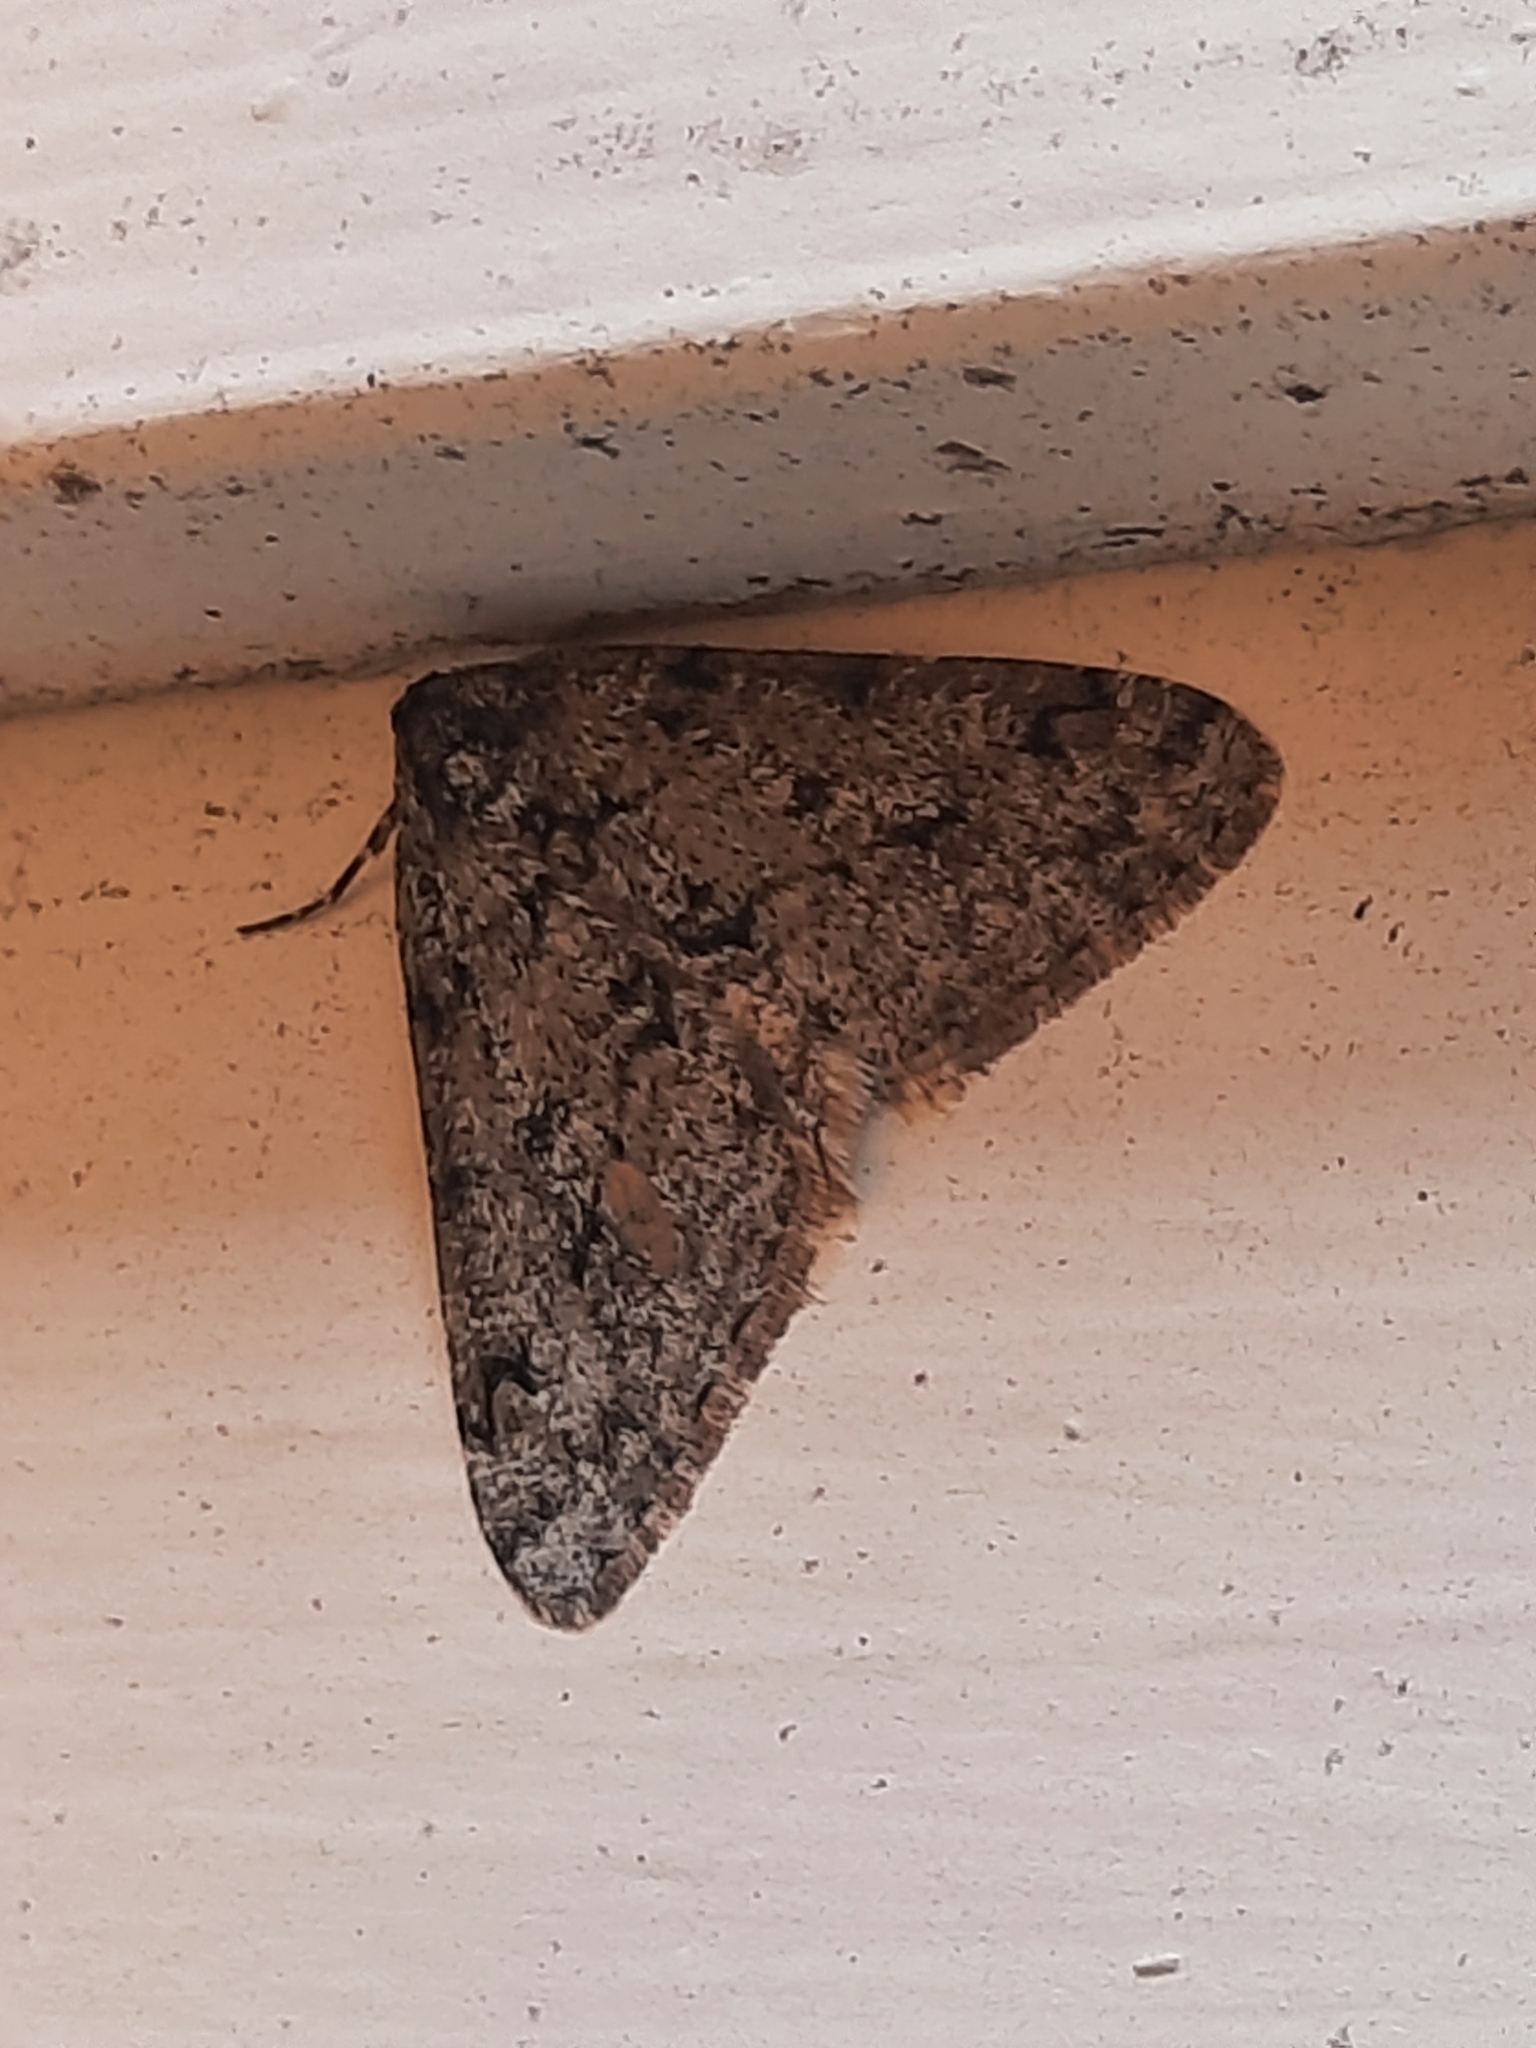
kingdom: Animalia
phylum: Arthropoda
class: Insecta
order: Lepidoptera
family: Geometridae
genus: Phigalia
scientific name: Phigalia strigataria
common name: Small phigalia
